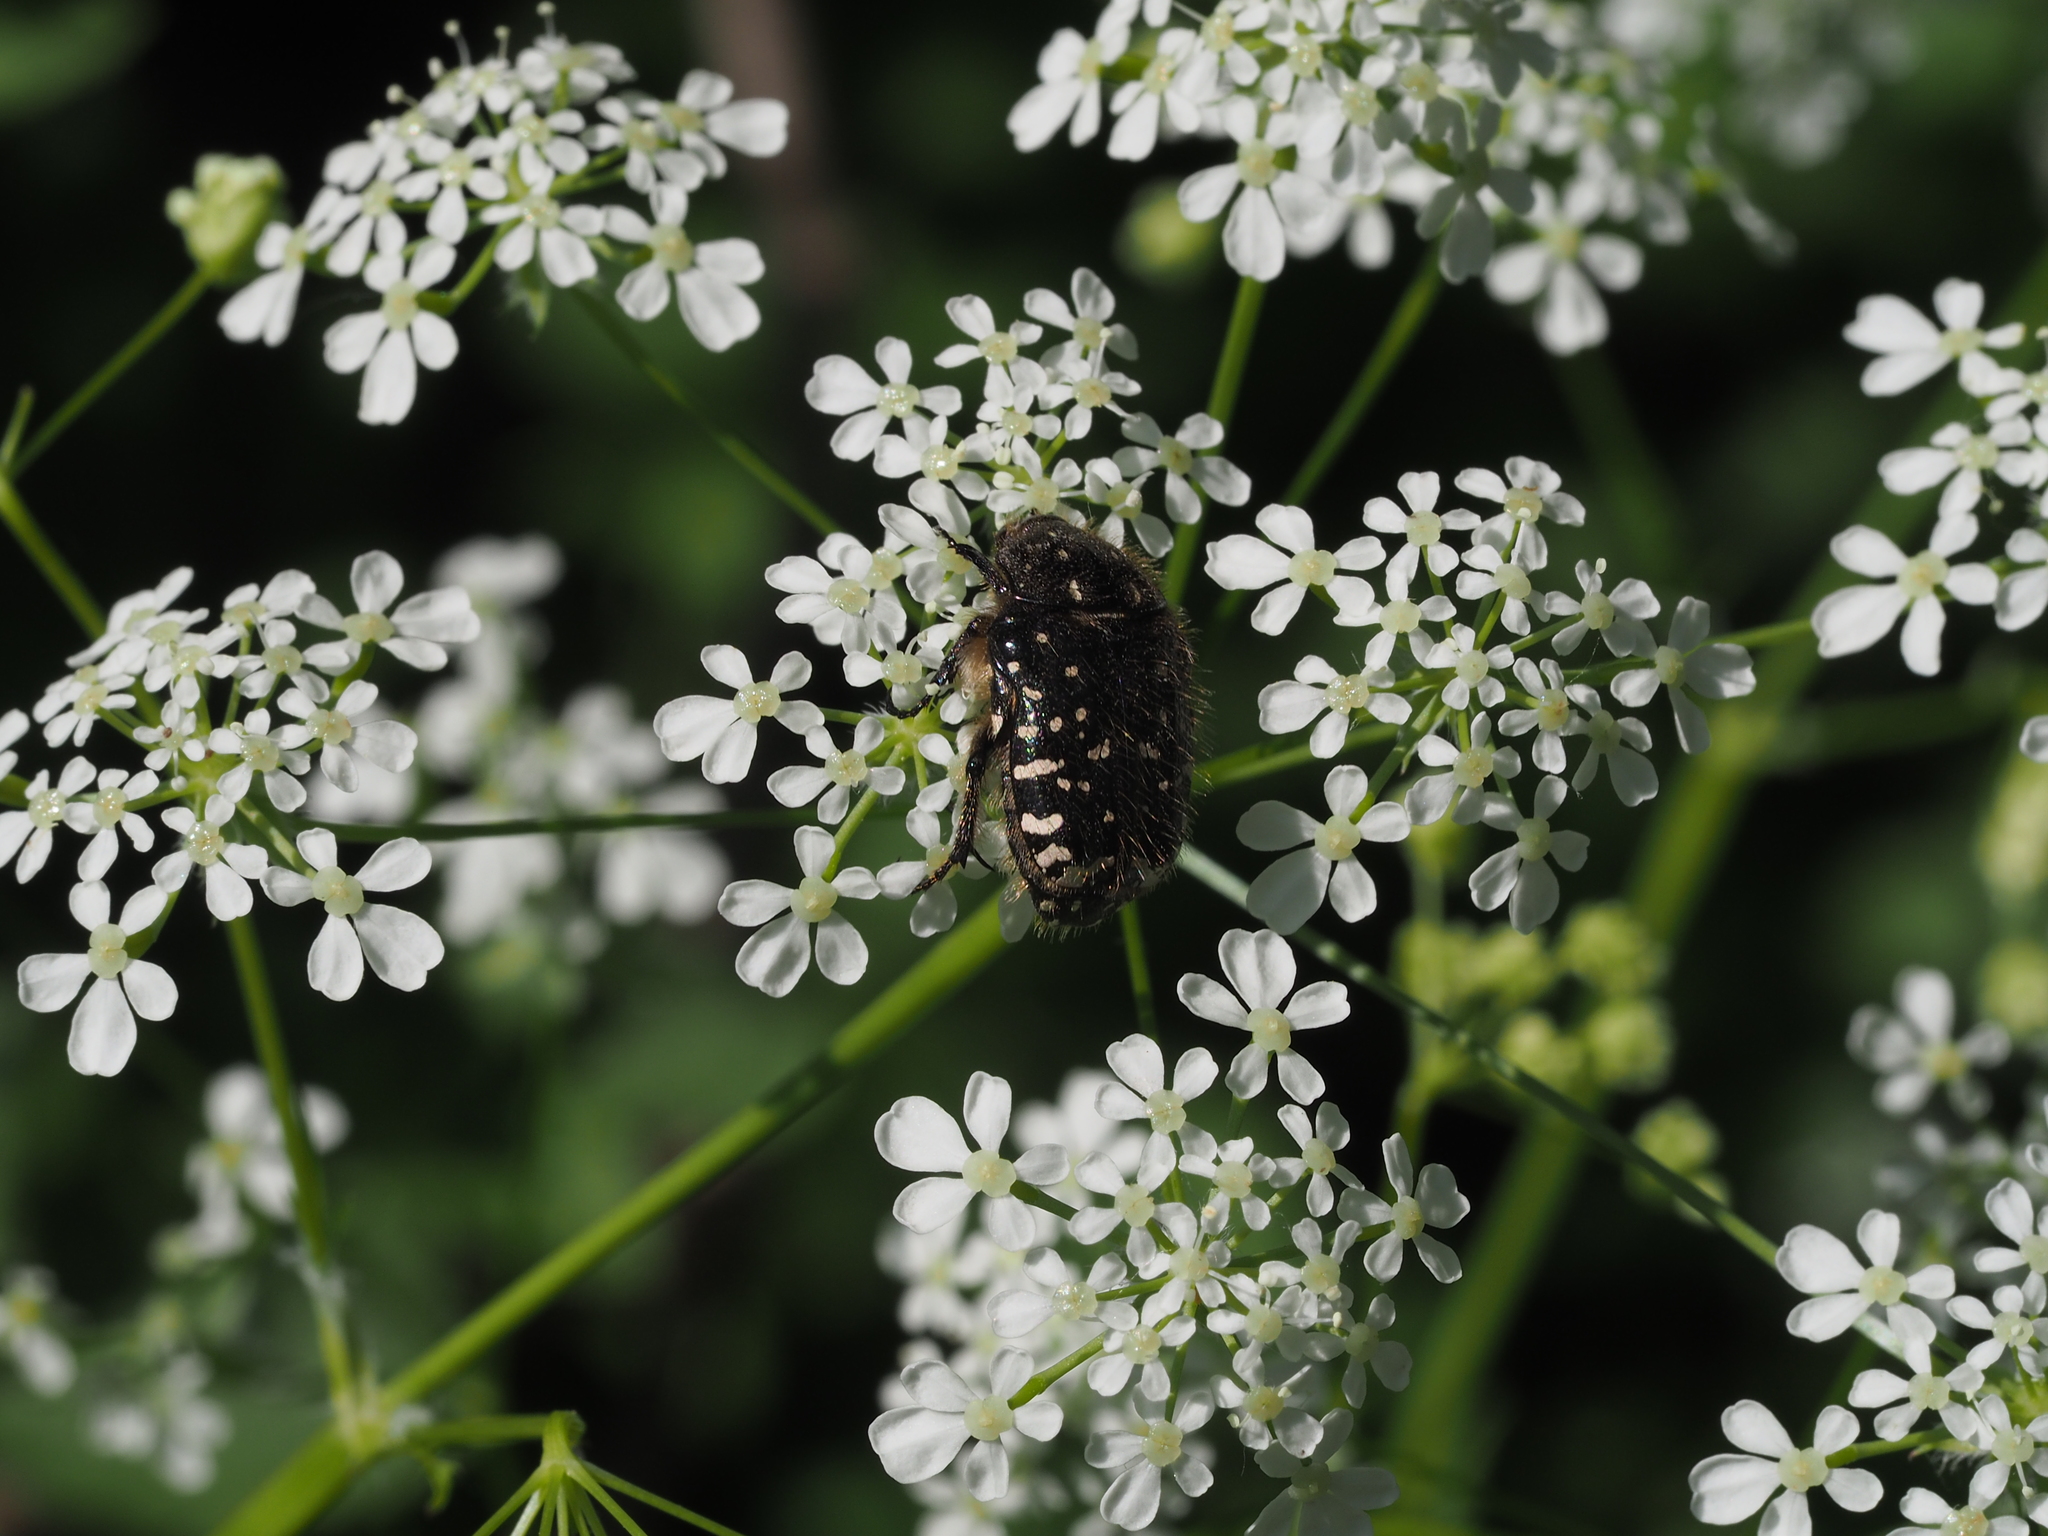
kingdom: Animalia
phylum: Arthropoda
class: Insecta
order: Coleoptera
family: Scarabaeidae
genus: Oxythyrea
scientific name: Oxythyrea funesta
